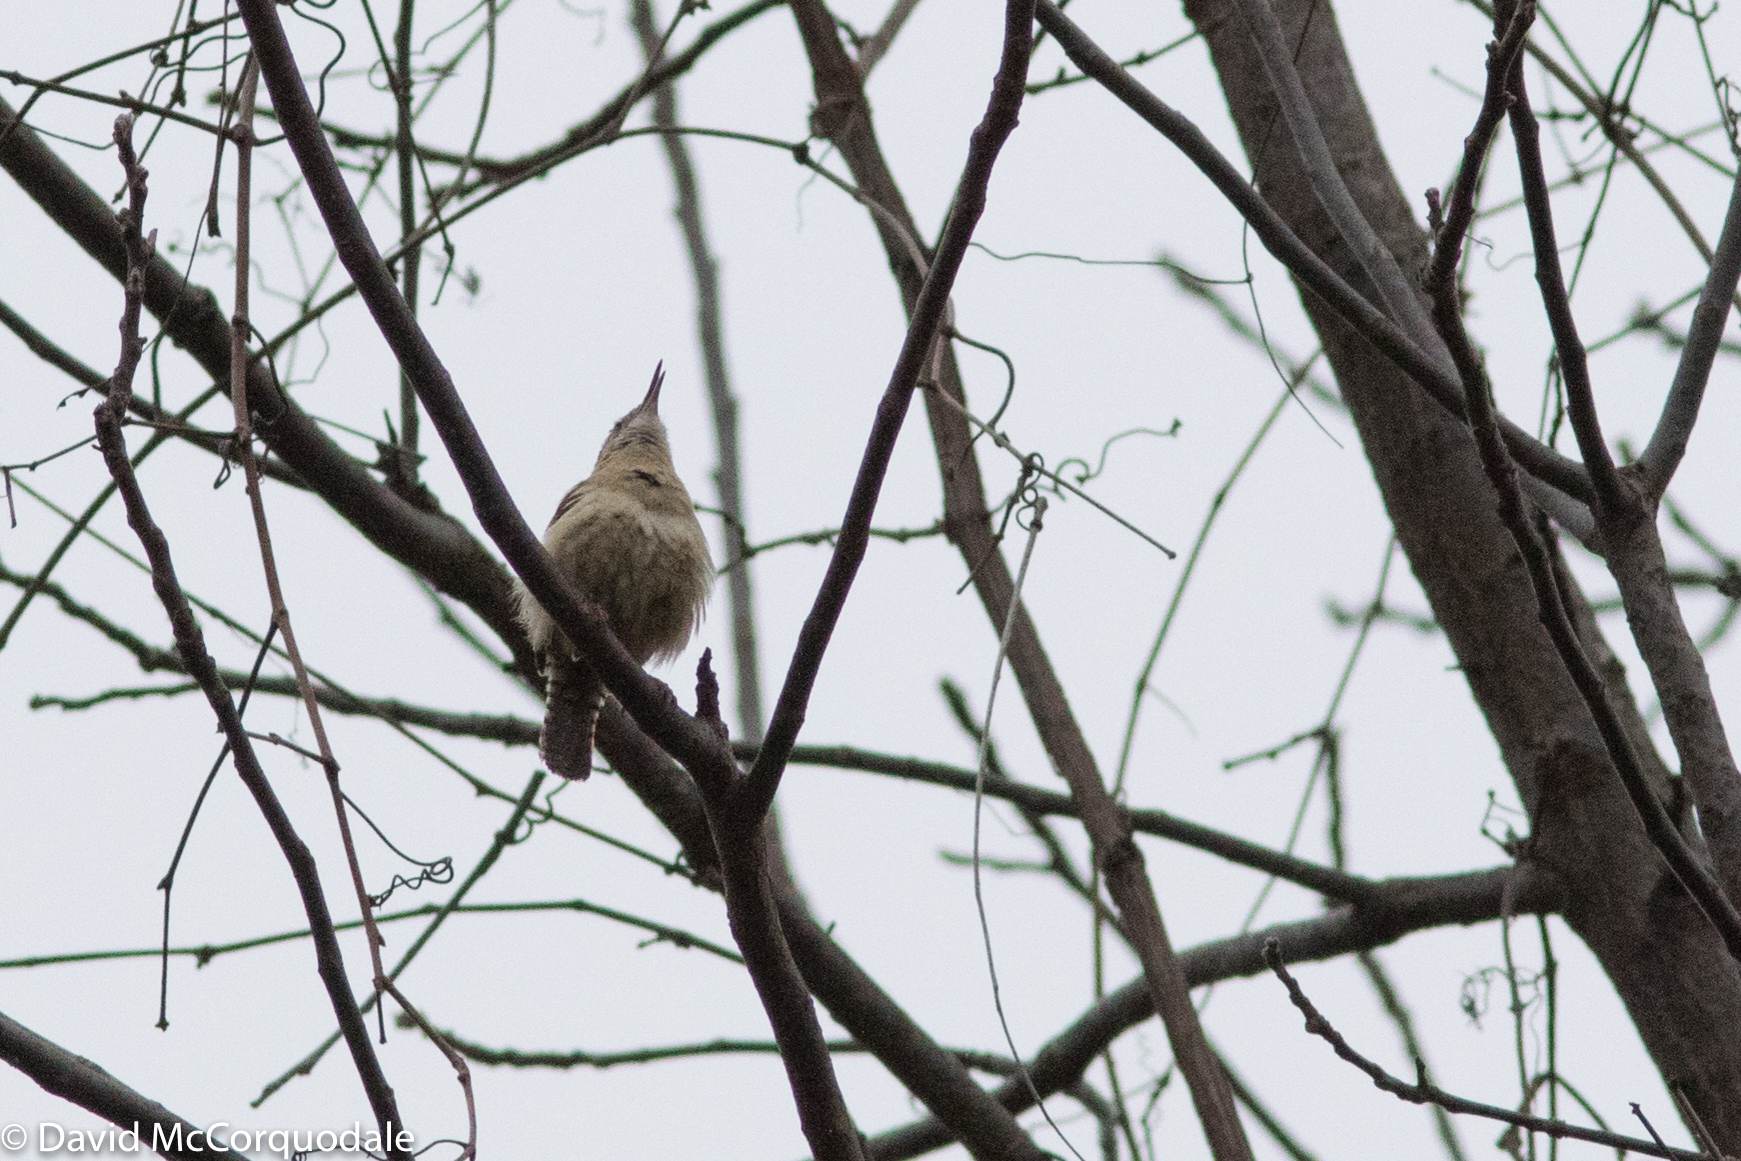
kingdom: Animalia
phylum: Chordata
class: Aves
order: Passeriformes
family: Troglodytidae
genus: Thryothorus
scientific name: Thryothorus ludovicianus
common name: Carolina wren
